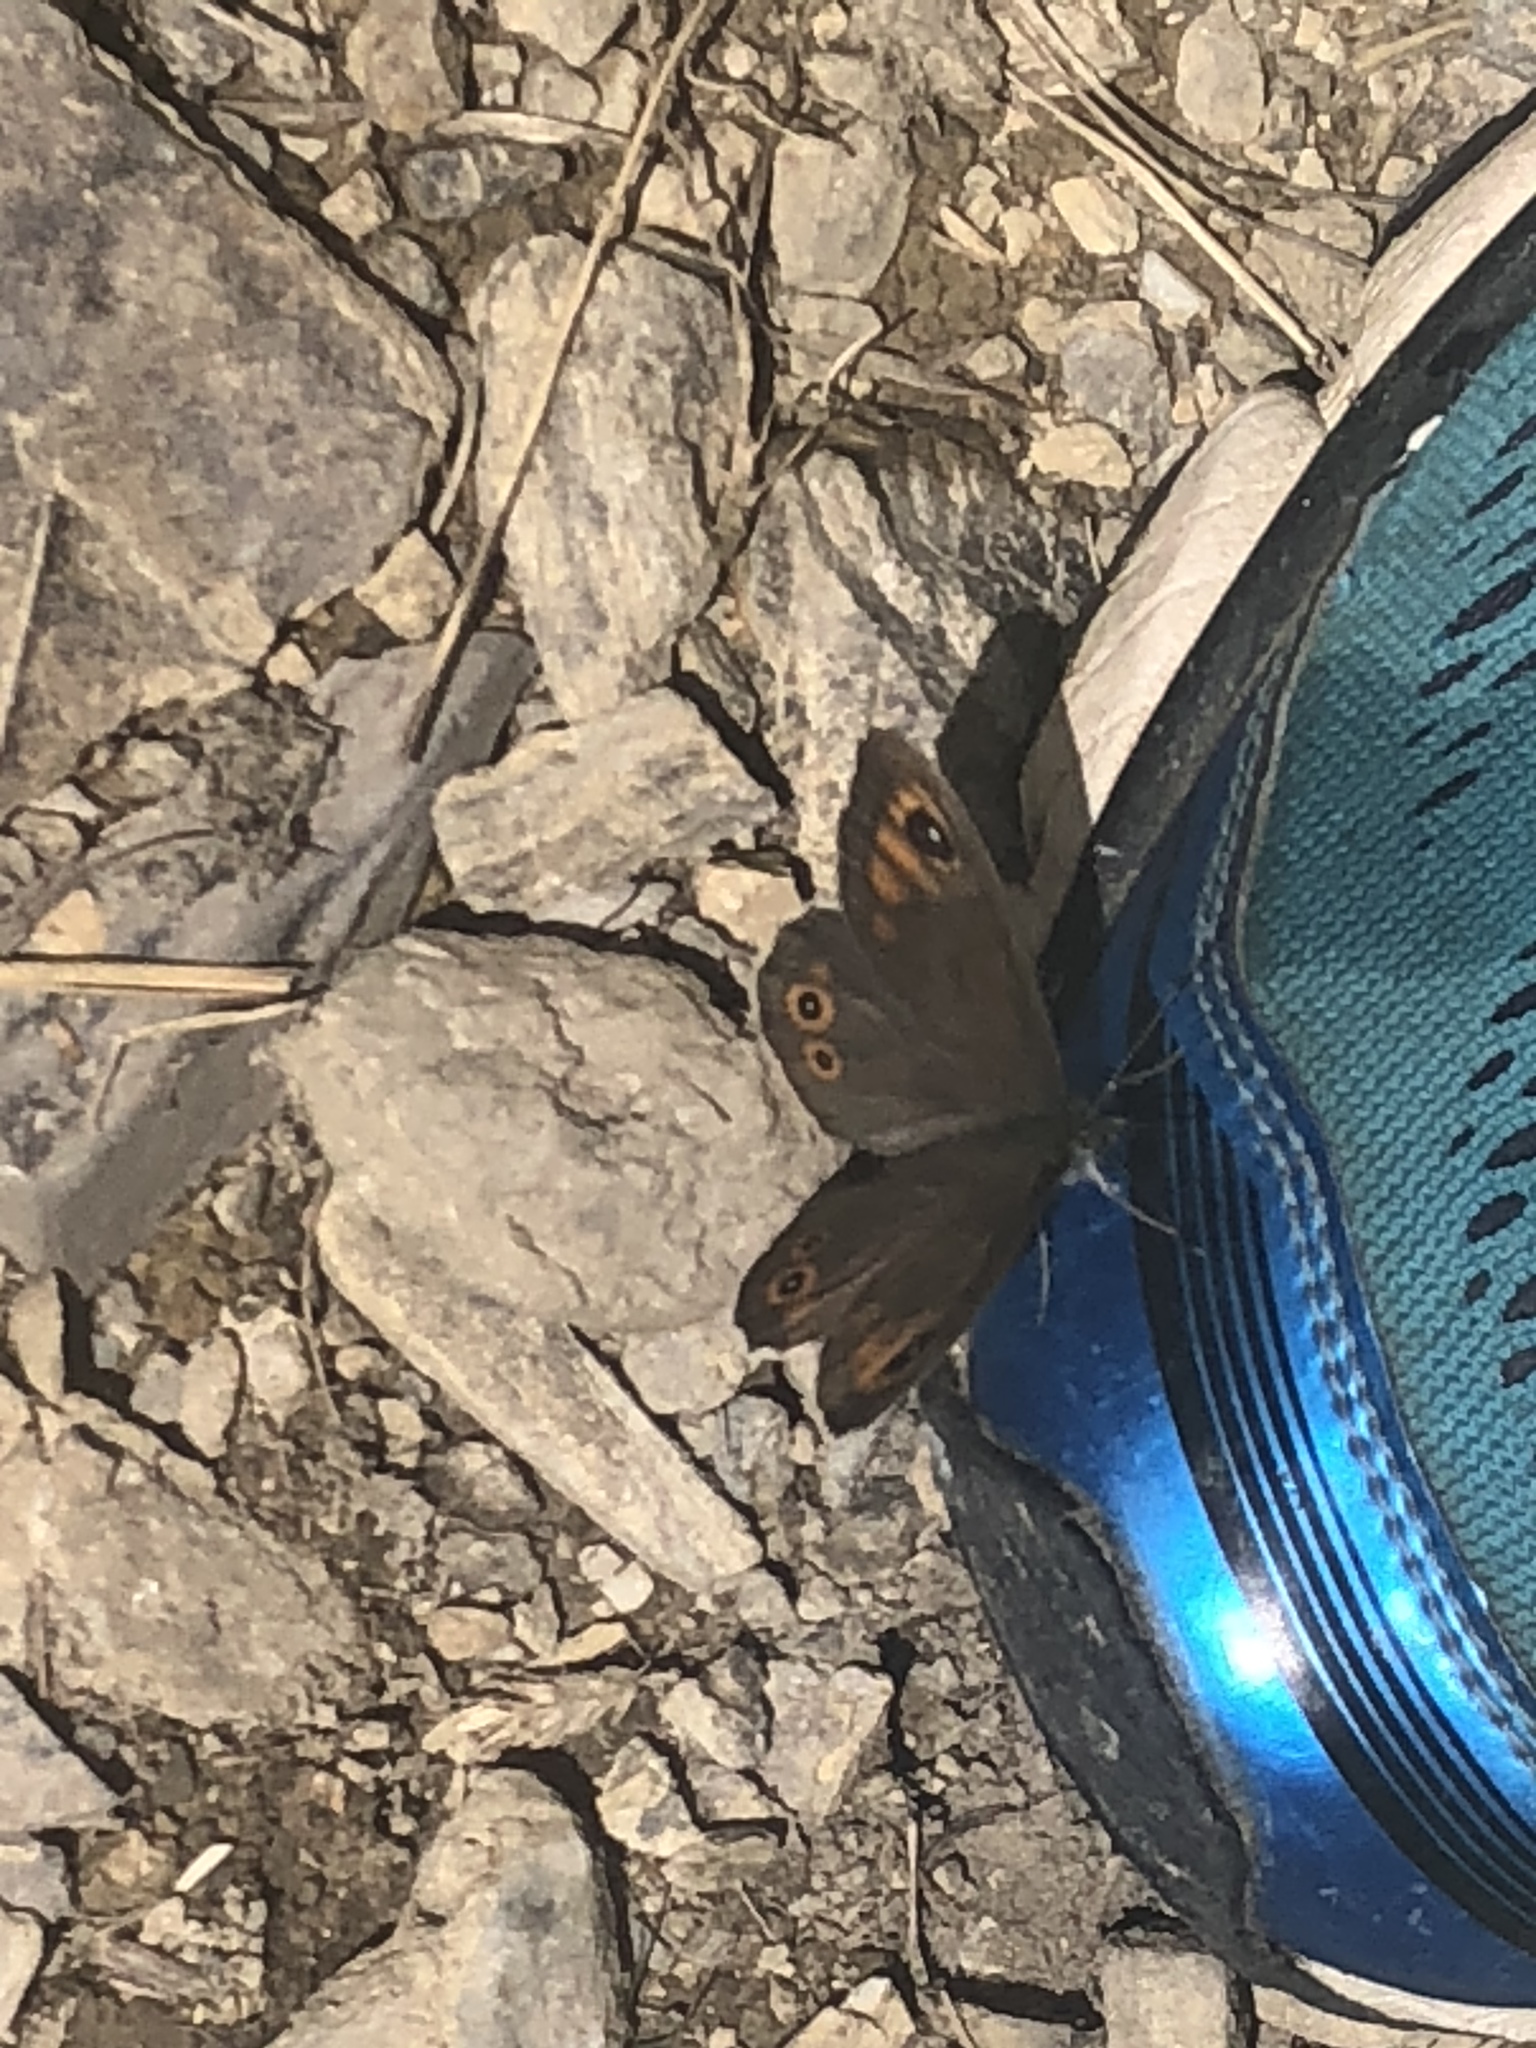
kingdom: Animalia
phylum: Arthropoda
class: Insecta
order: Lepidoptera
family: Nymphalidae
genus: Pararge
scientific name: Pararge Lasiommata maera
